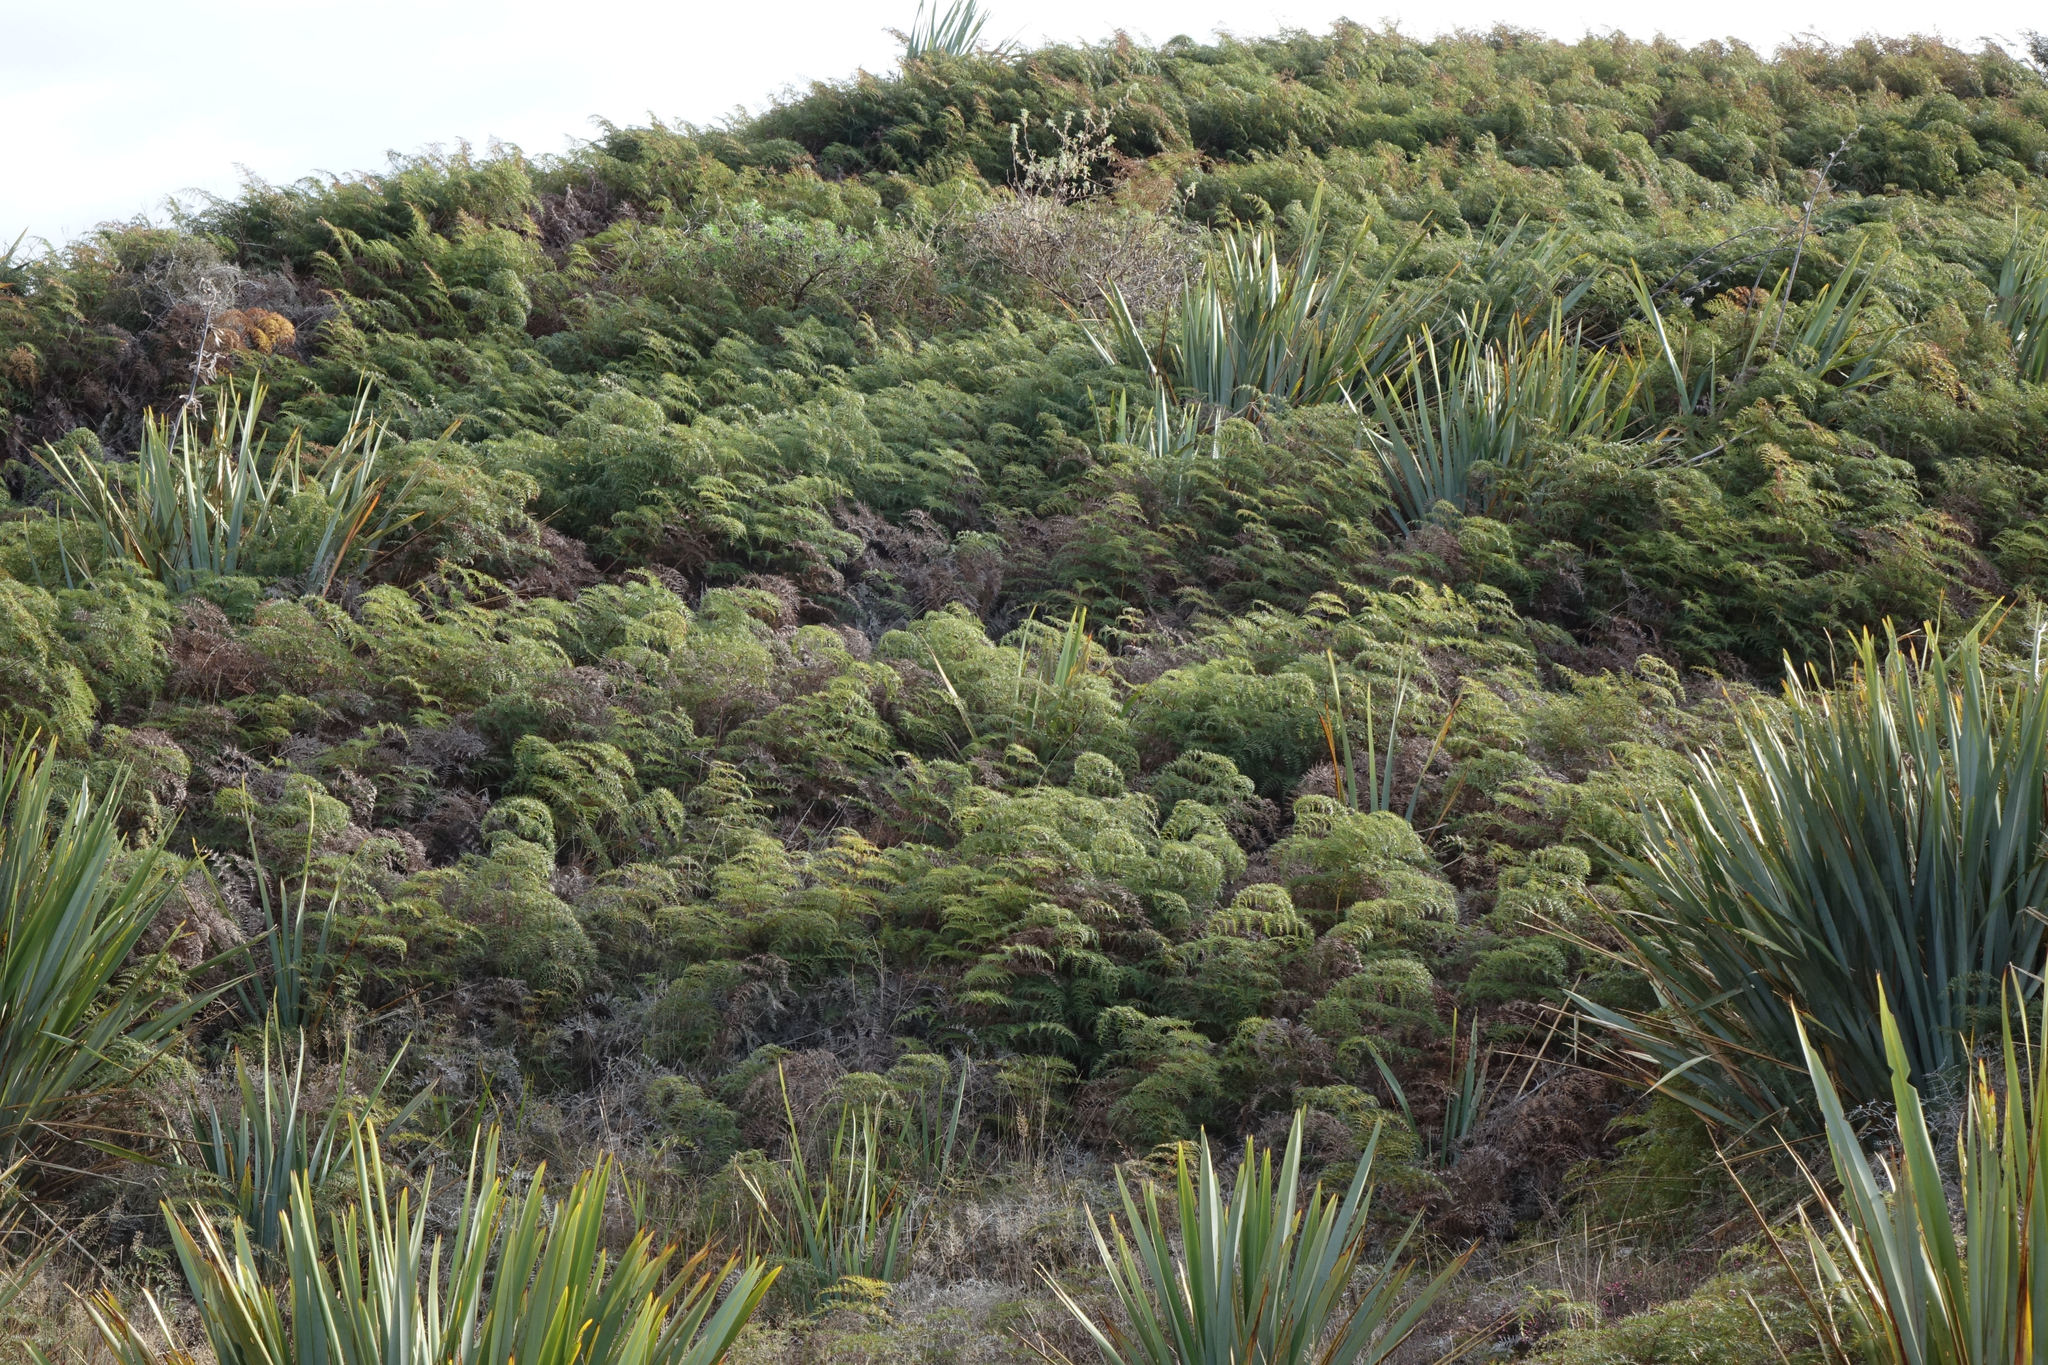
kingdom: Plantae
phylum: Tracheophyta
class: Polypodiopsida
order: Polypodiales
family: Dennstaedtiaceae
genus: Pteridium
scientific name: Pteridium esculentum
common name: Bracken fern
